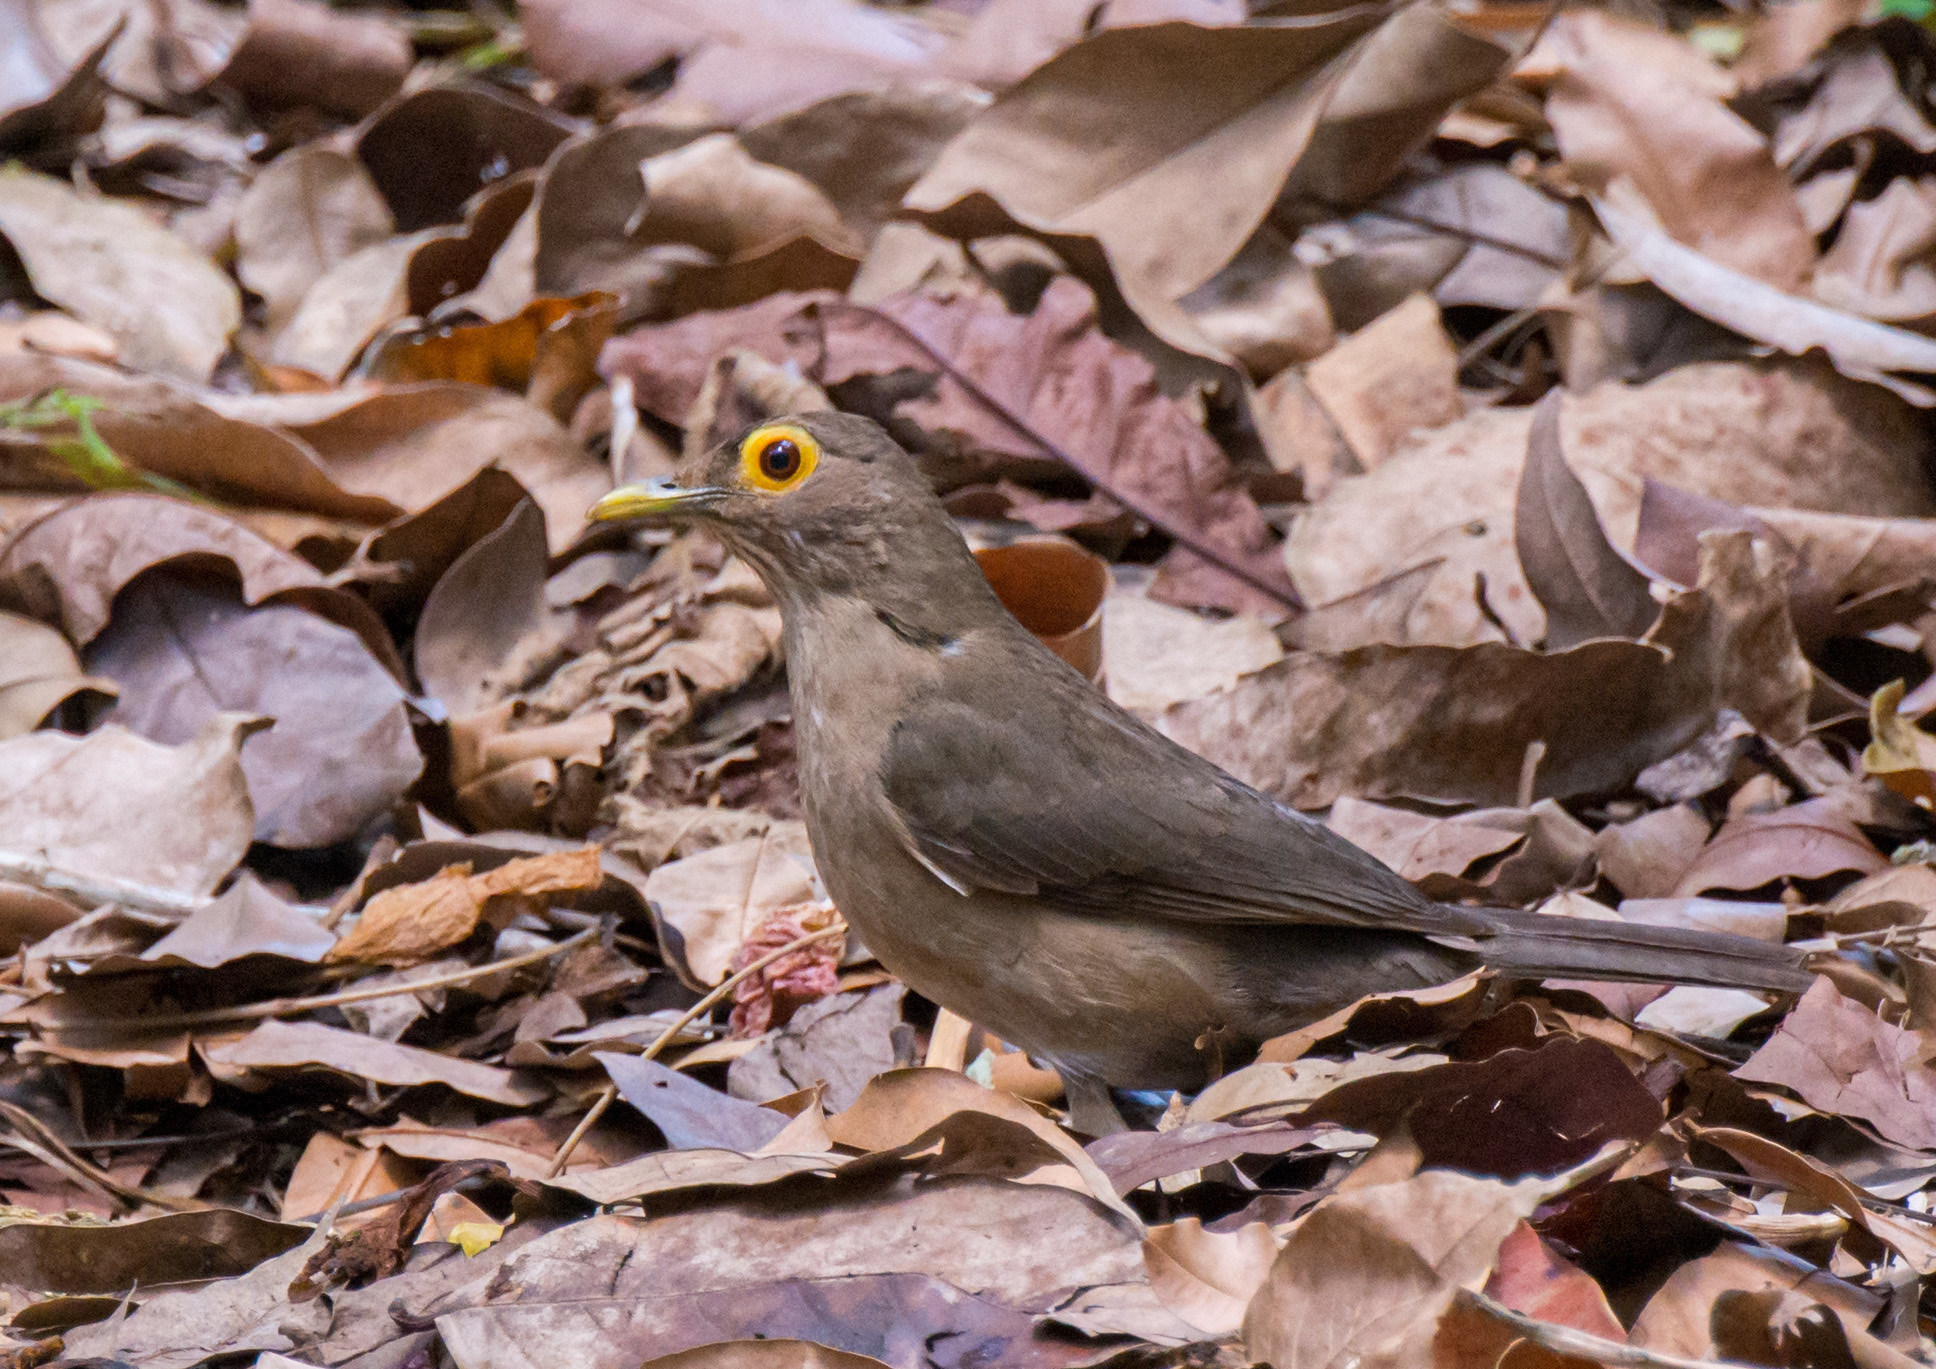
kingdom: Animalia
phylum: Chordata
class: Aves
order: Passeriformes
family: Turdidae
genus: Turdus
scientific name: Turdus nudigenis
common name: Spectacled thrush
